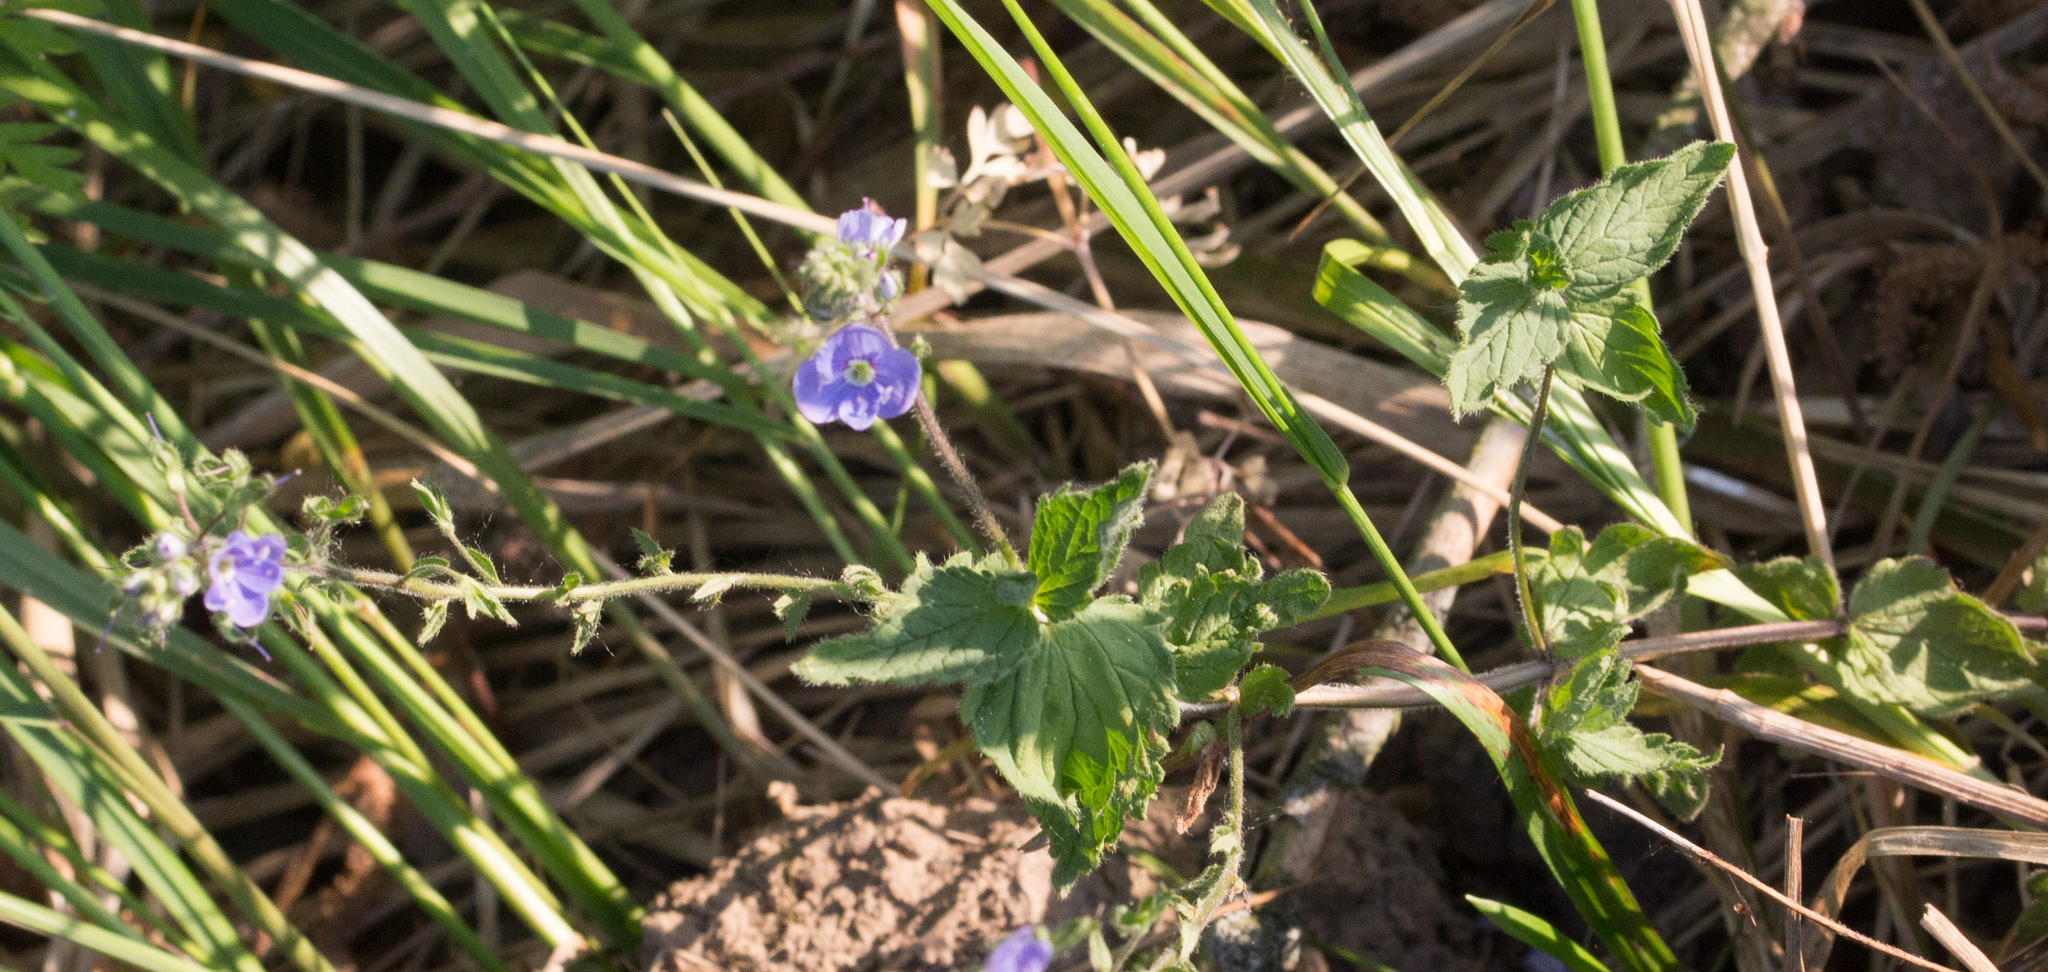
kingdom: Plantae
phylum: Tracheophyta
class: Magnoliopsida
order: Lamiales
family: Plantaginaceae
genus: Veronica
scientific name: Veronica chamaedrys
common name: Germander speedwell
